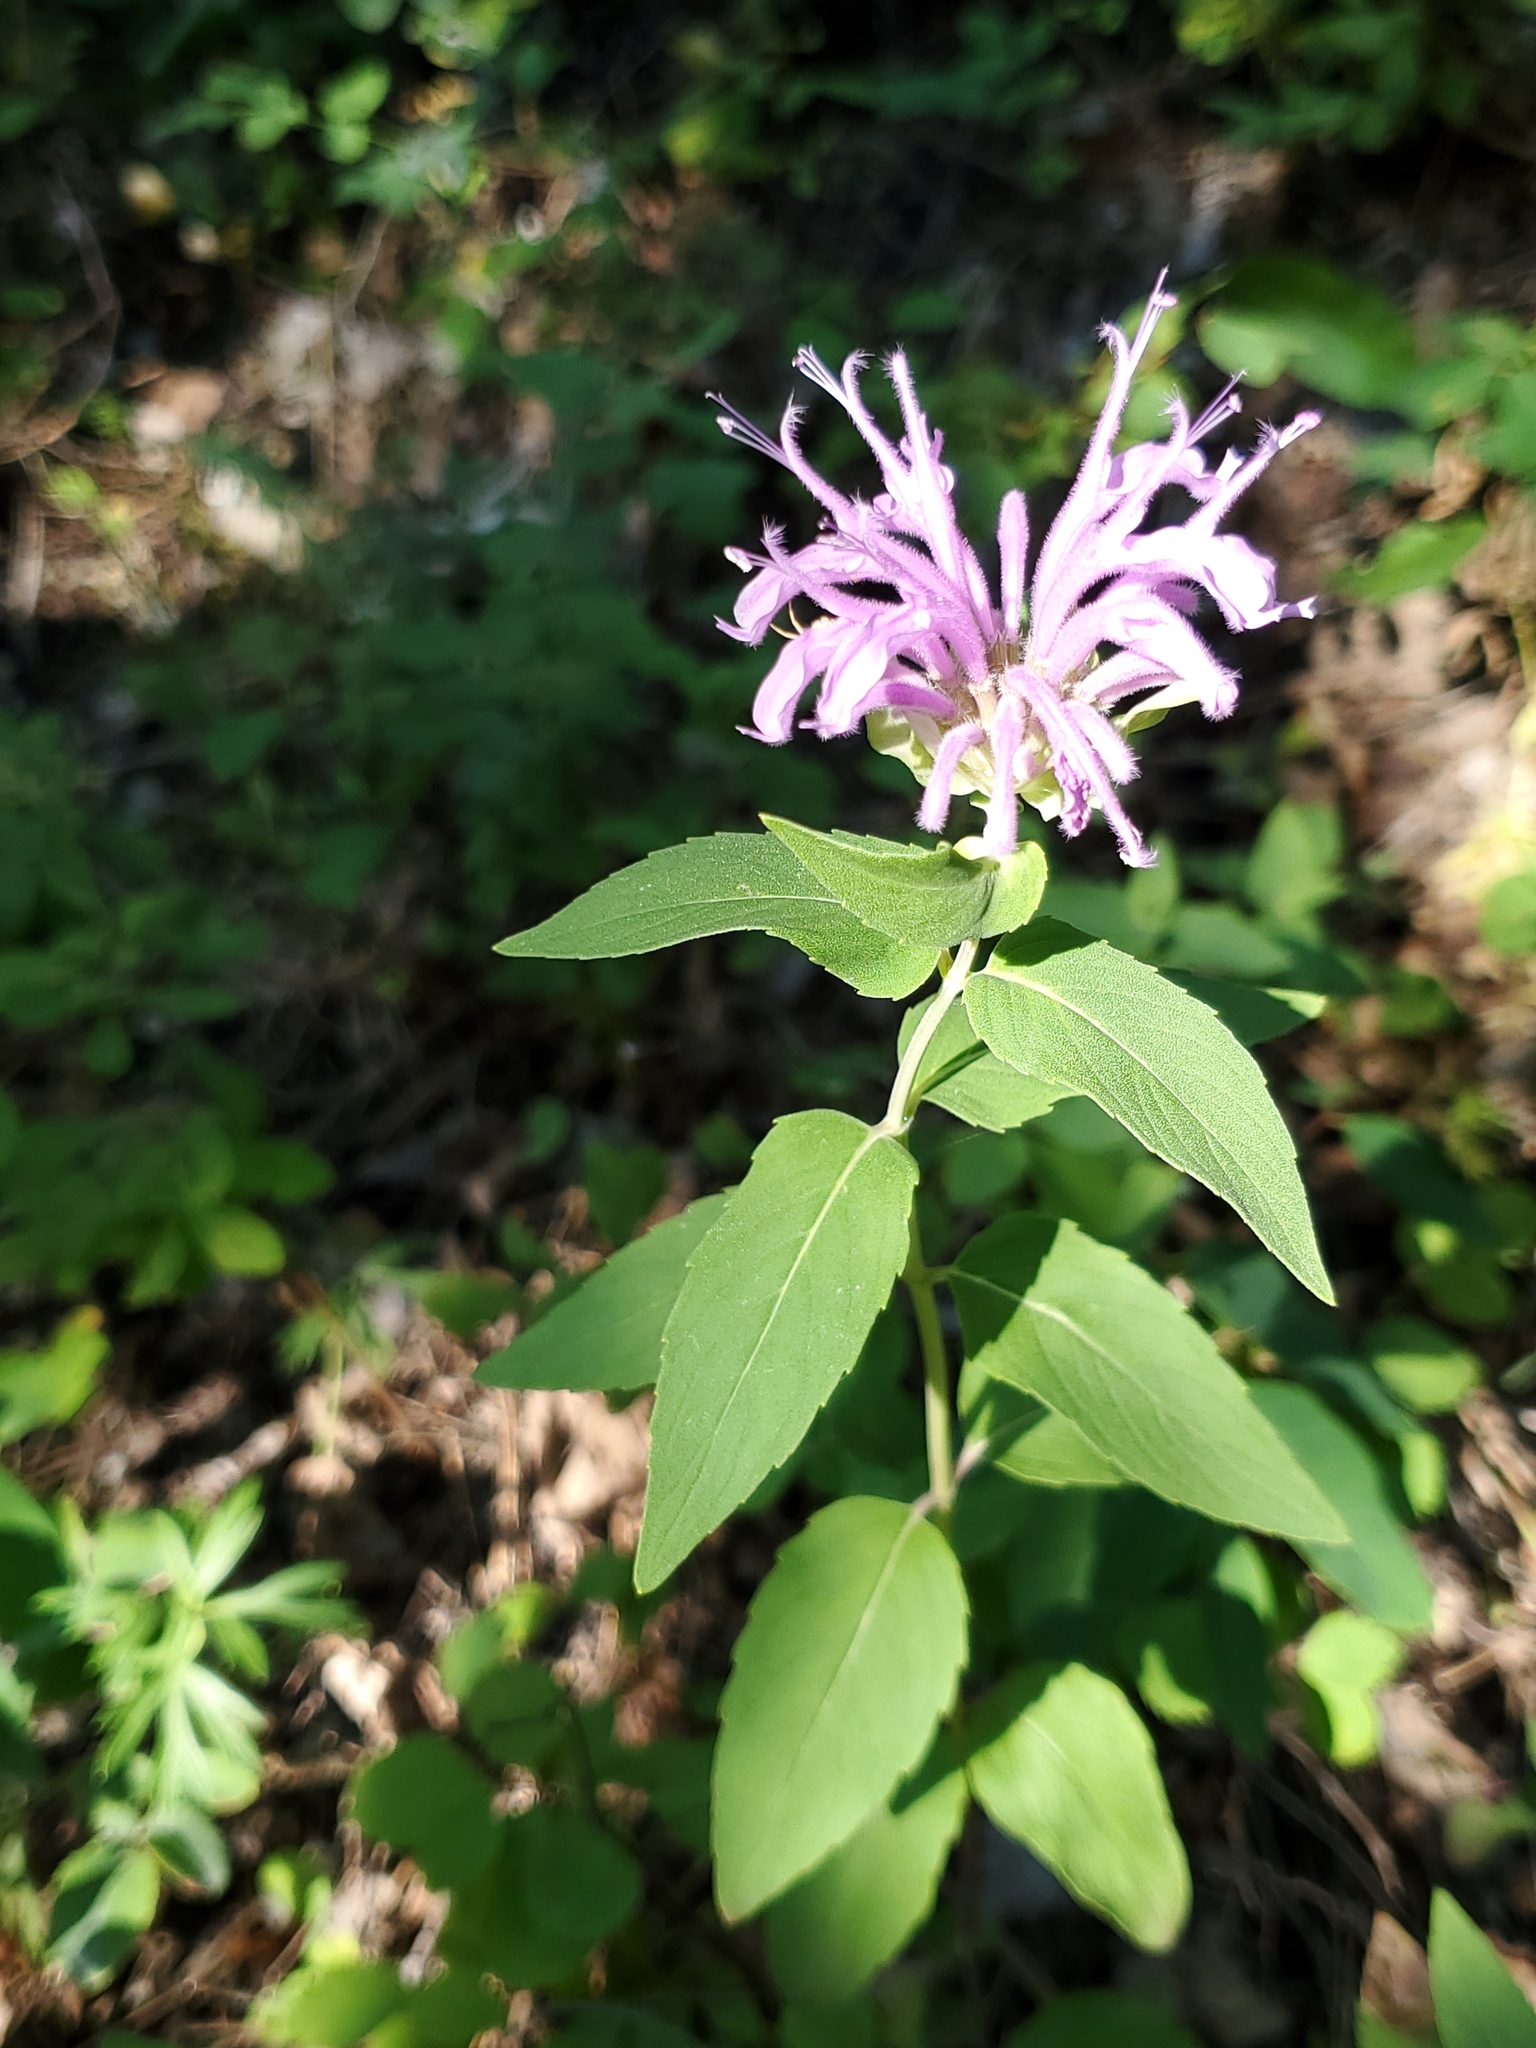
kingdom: Plantae
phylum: Tracheophyta
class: Magnoliopsida
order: Lamiales
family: Lamiaceae
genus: Monarda
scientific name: Monarda fistulosa
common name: Purple beebalm
